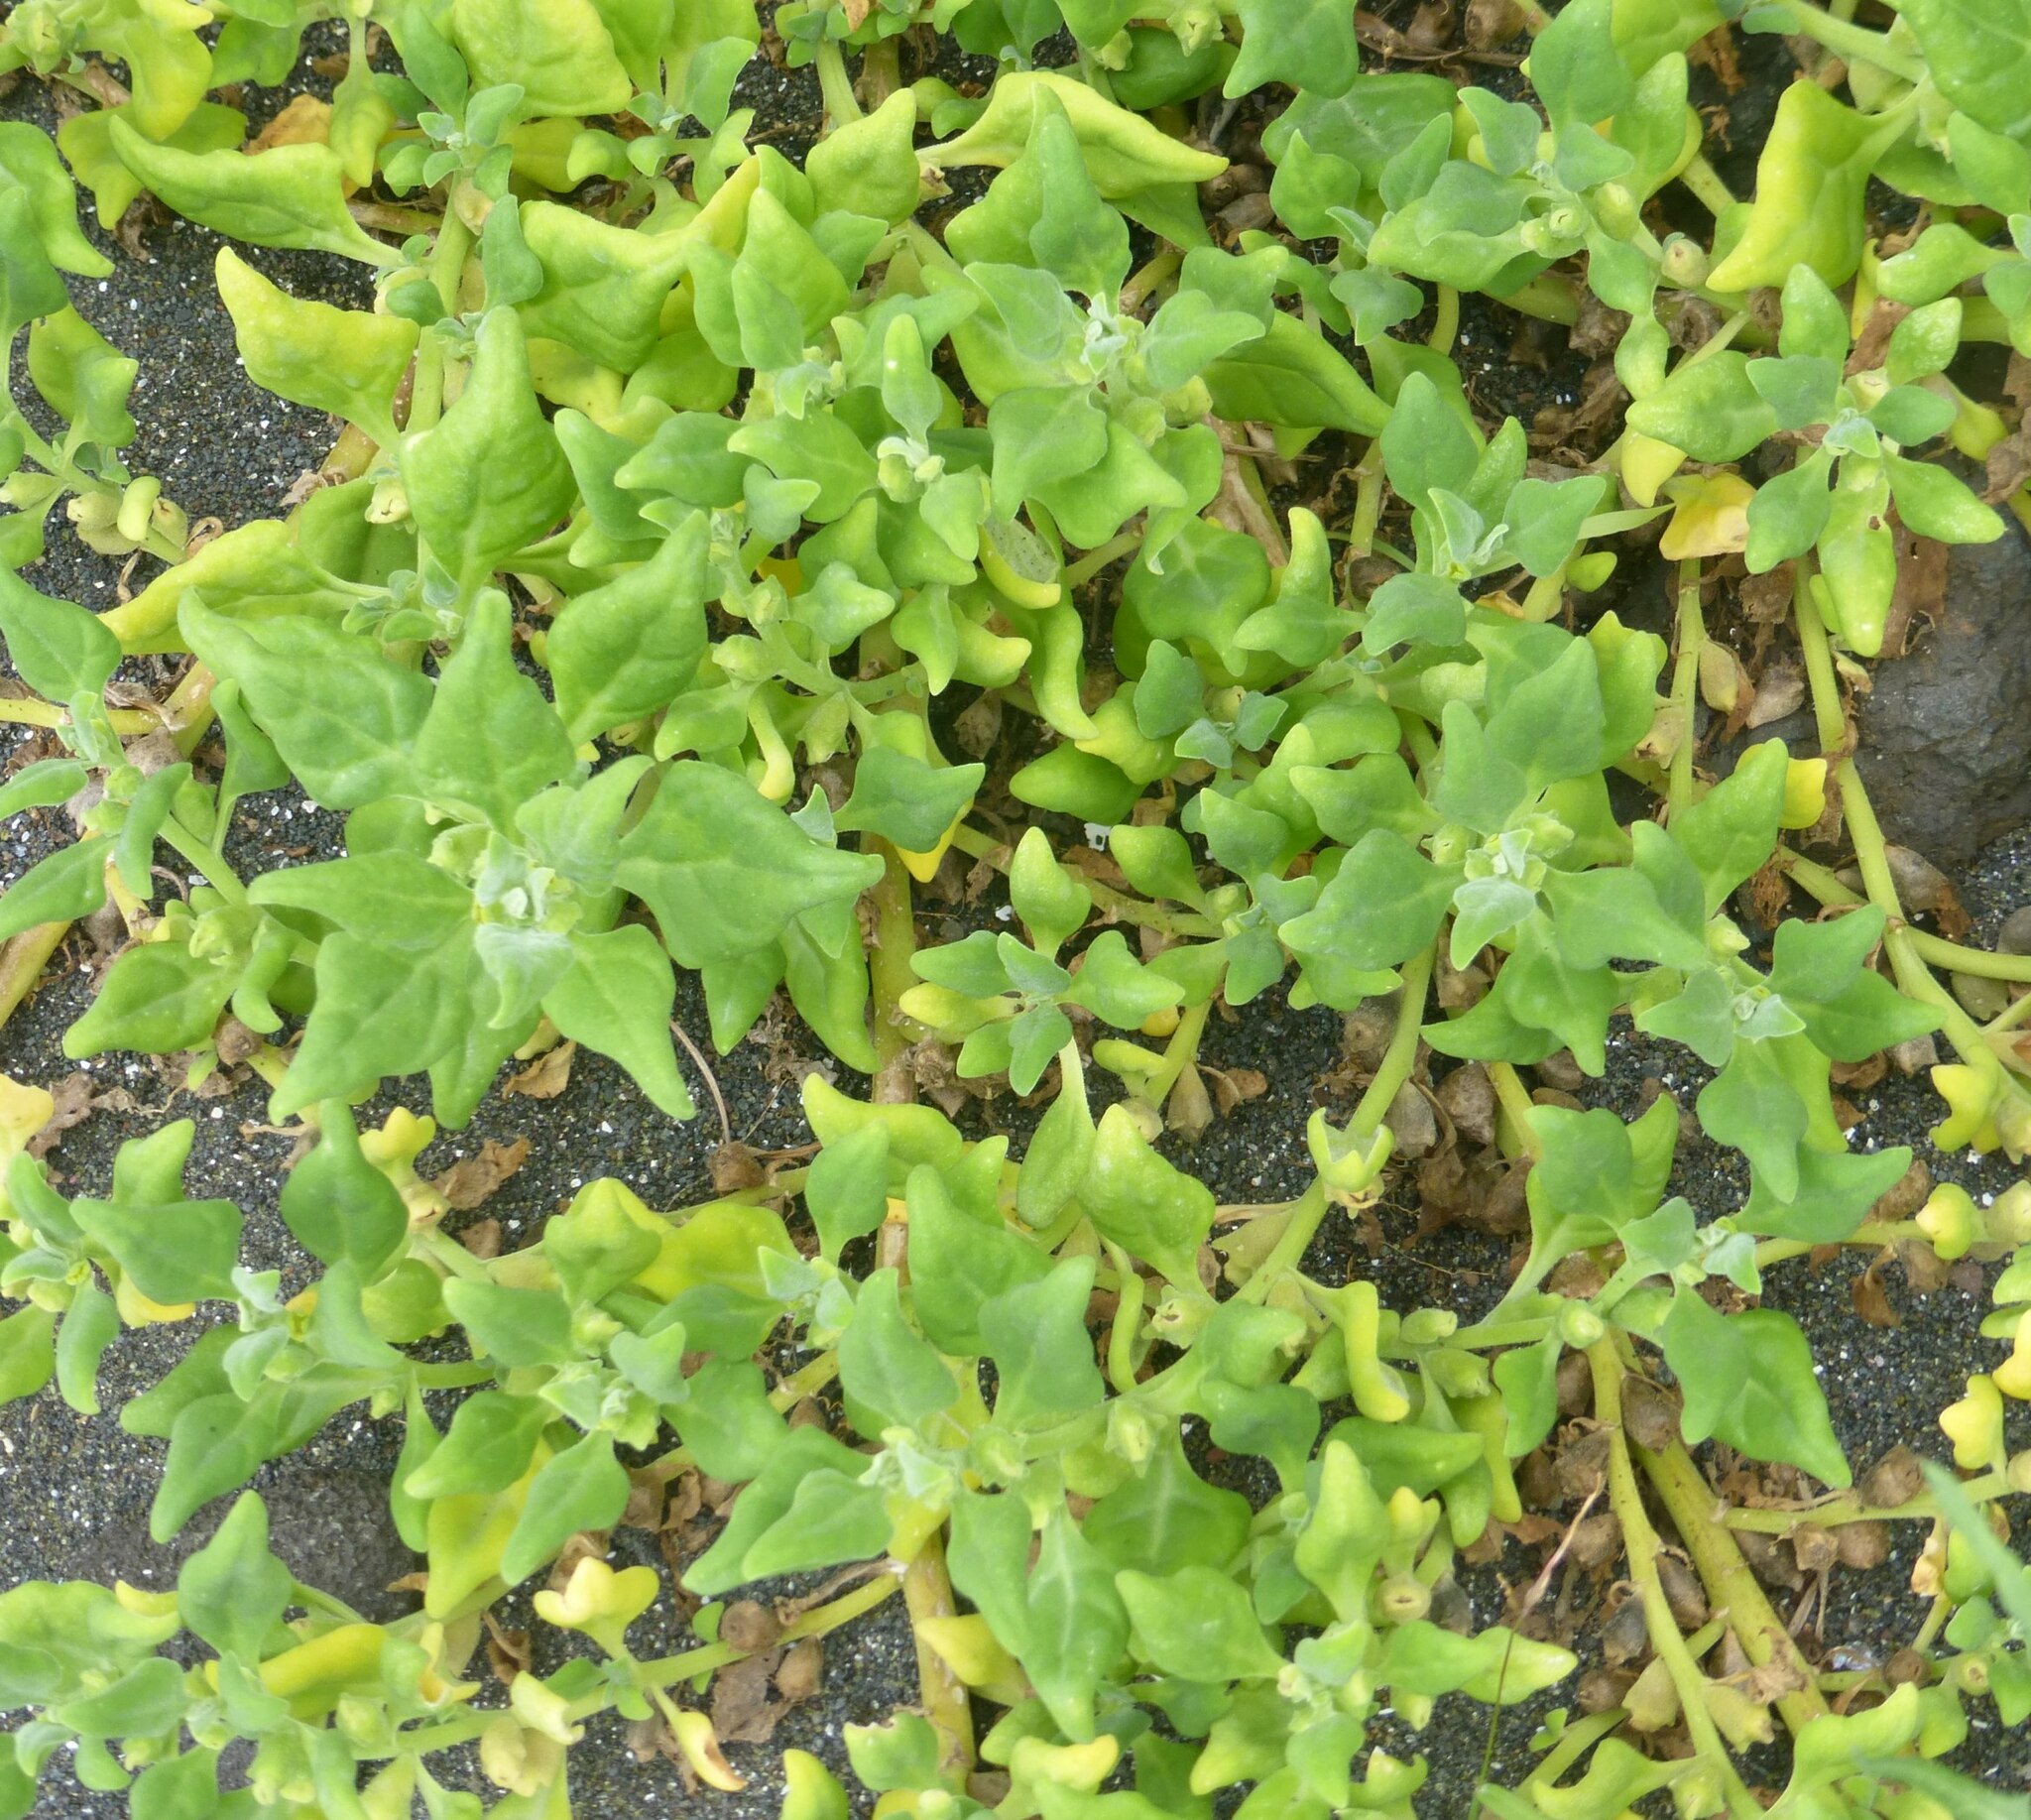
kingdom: Plantae
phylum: Tracheophyta
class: Magnoliopsida
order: Caryophyllales
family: Aizoaceae
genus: Tetragonia
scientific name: Tetragonia tetragonoides
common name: New zealand-spinach
